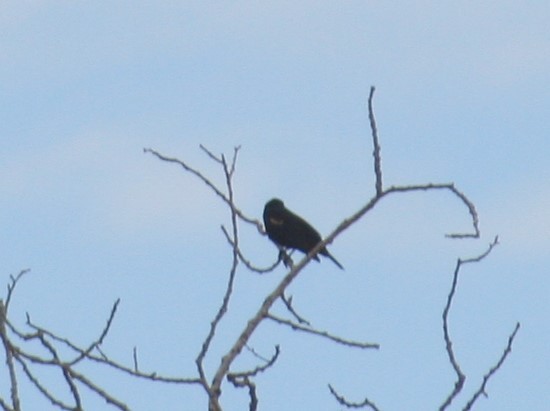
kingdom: Animalia
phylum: Chordata
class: Aves
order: Passeriformes
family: Icteridae
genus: Agelaius
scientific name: Agelaius phoeniceus
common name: Red-winged blackbird
